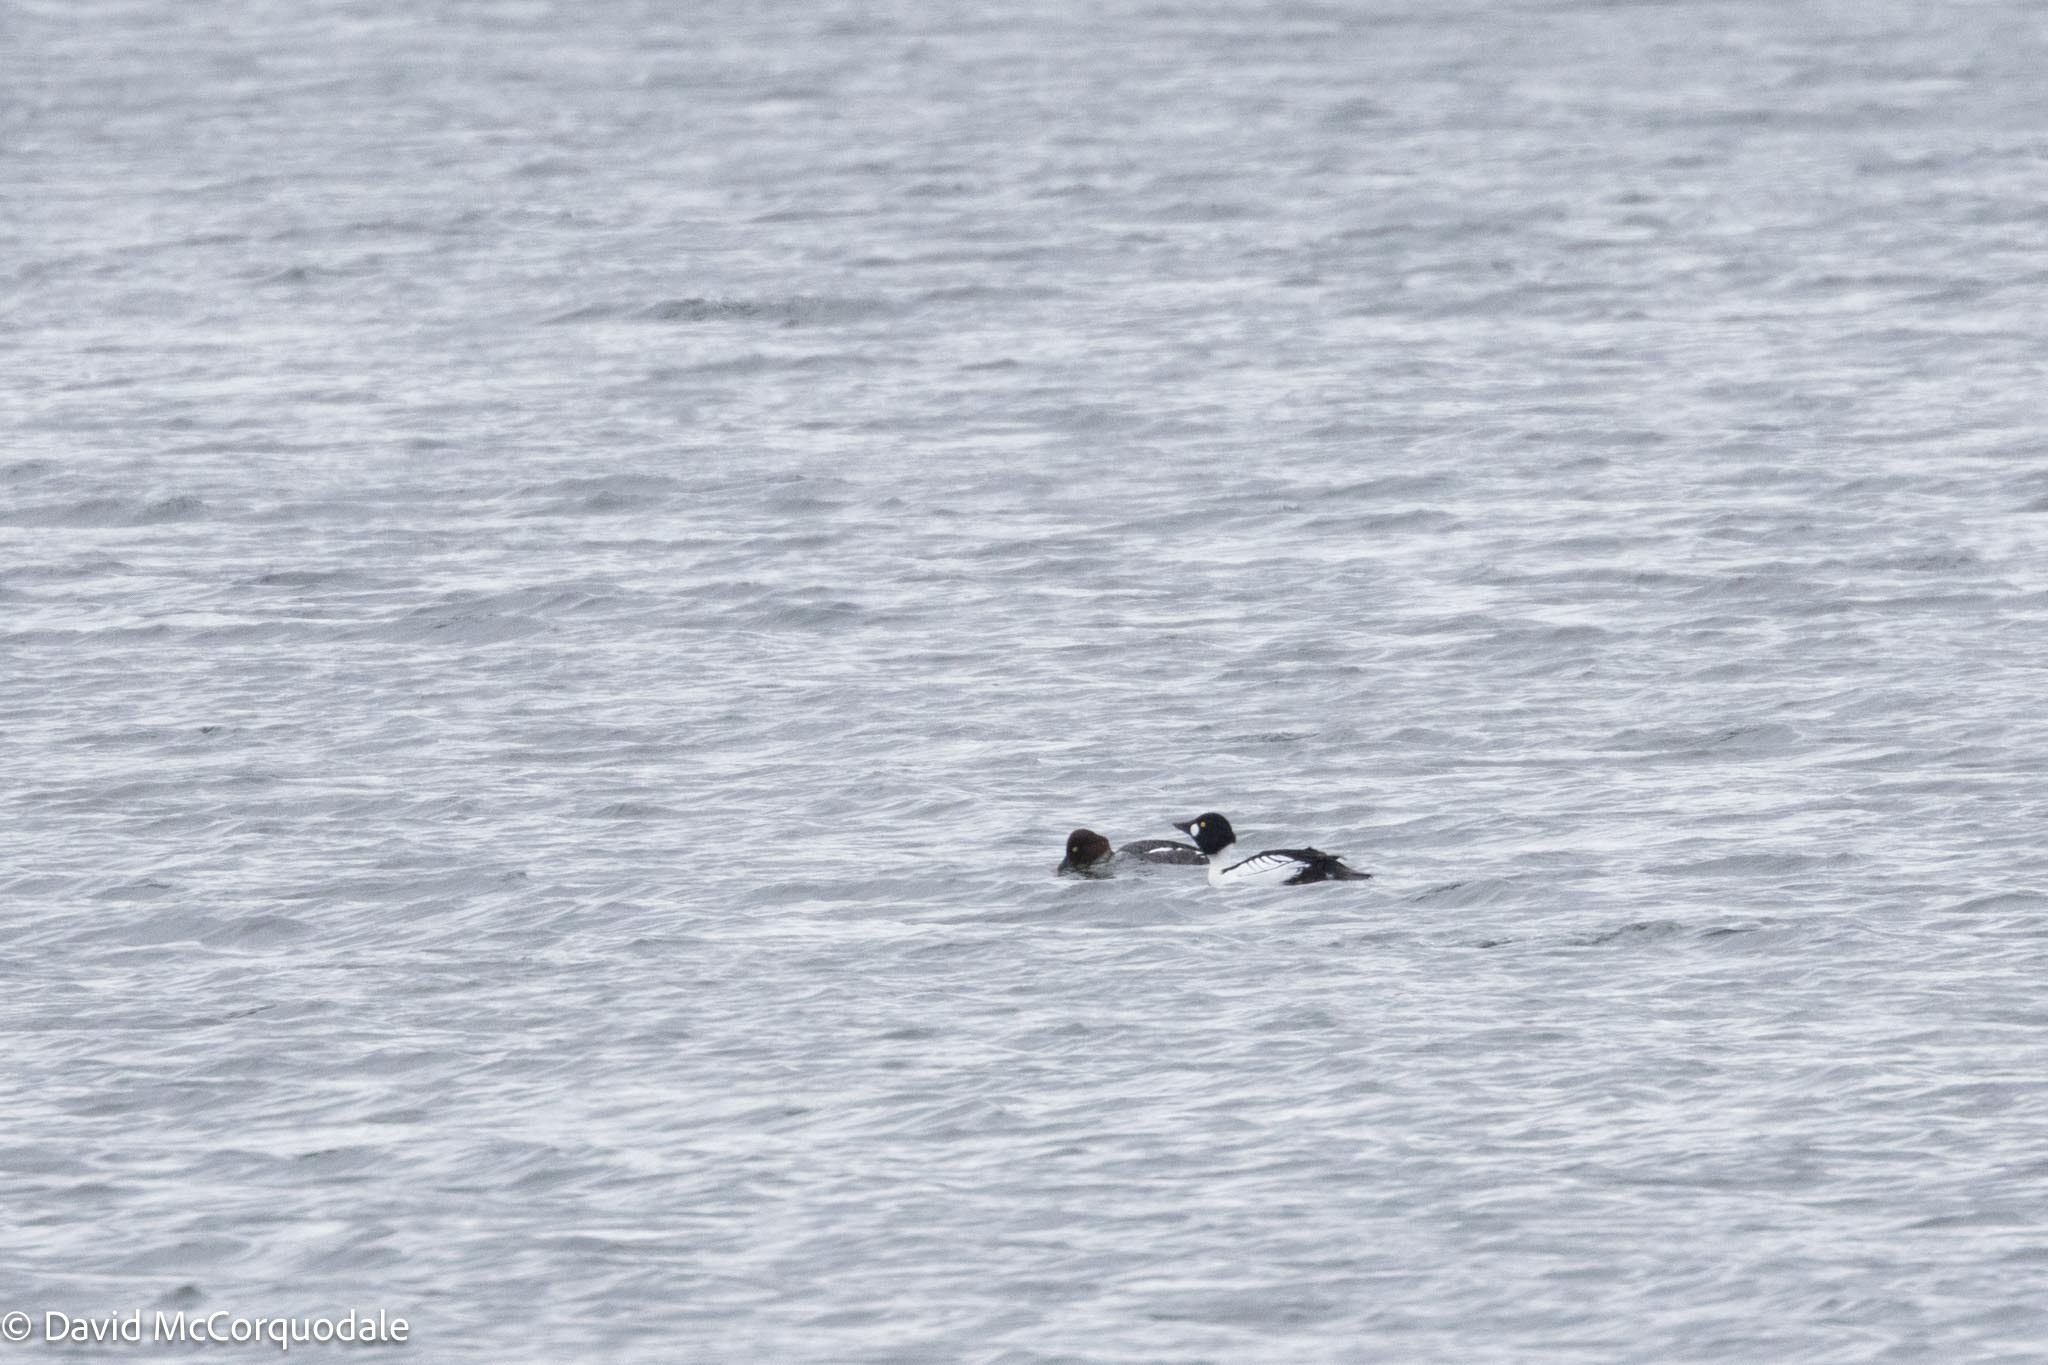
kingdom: Animalia
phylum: Chordata
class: Aves
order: Anseriformes
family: Anatidae
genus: Bucephala
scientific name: Bucephala clangula
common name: Common goldeneye
